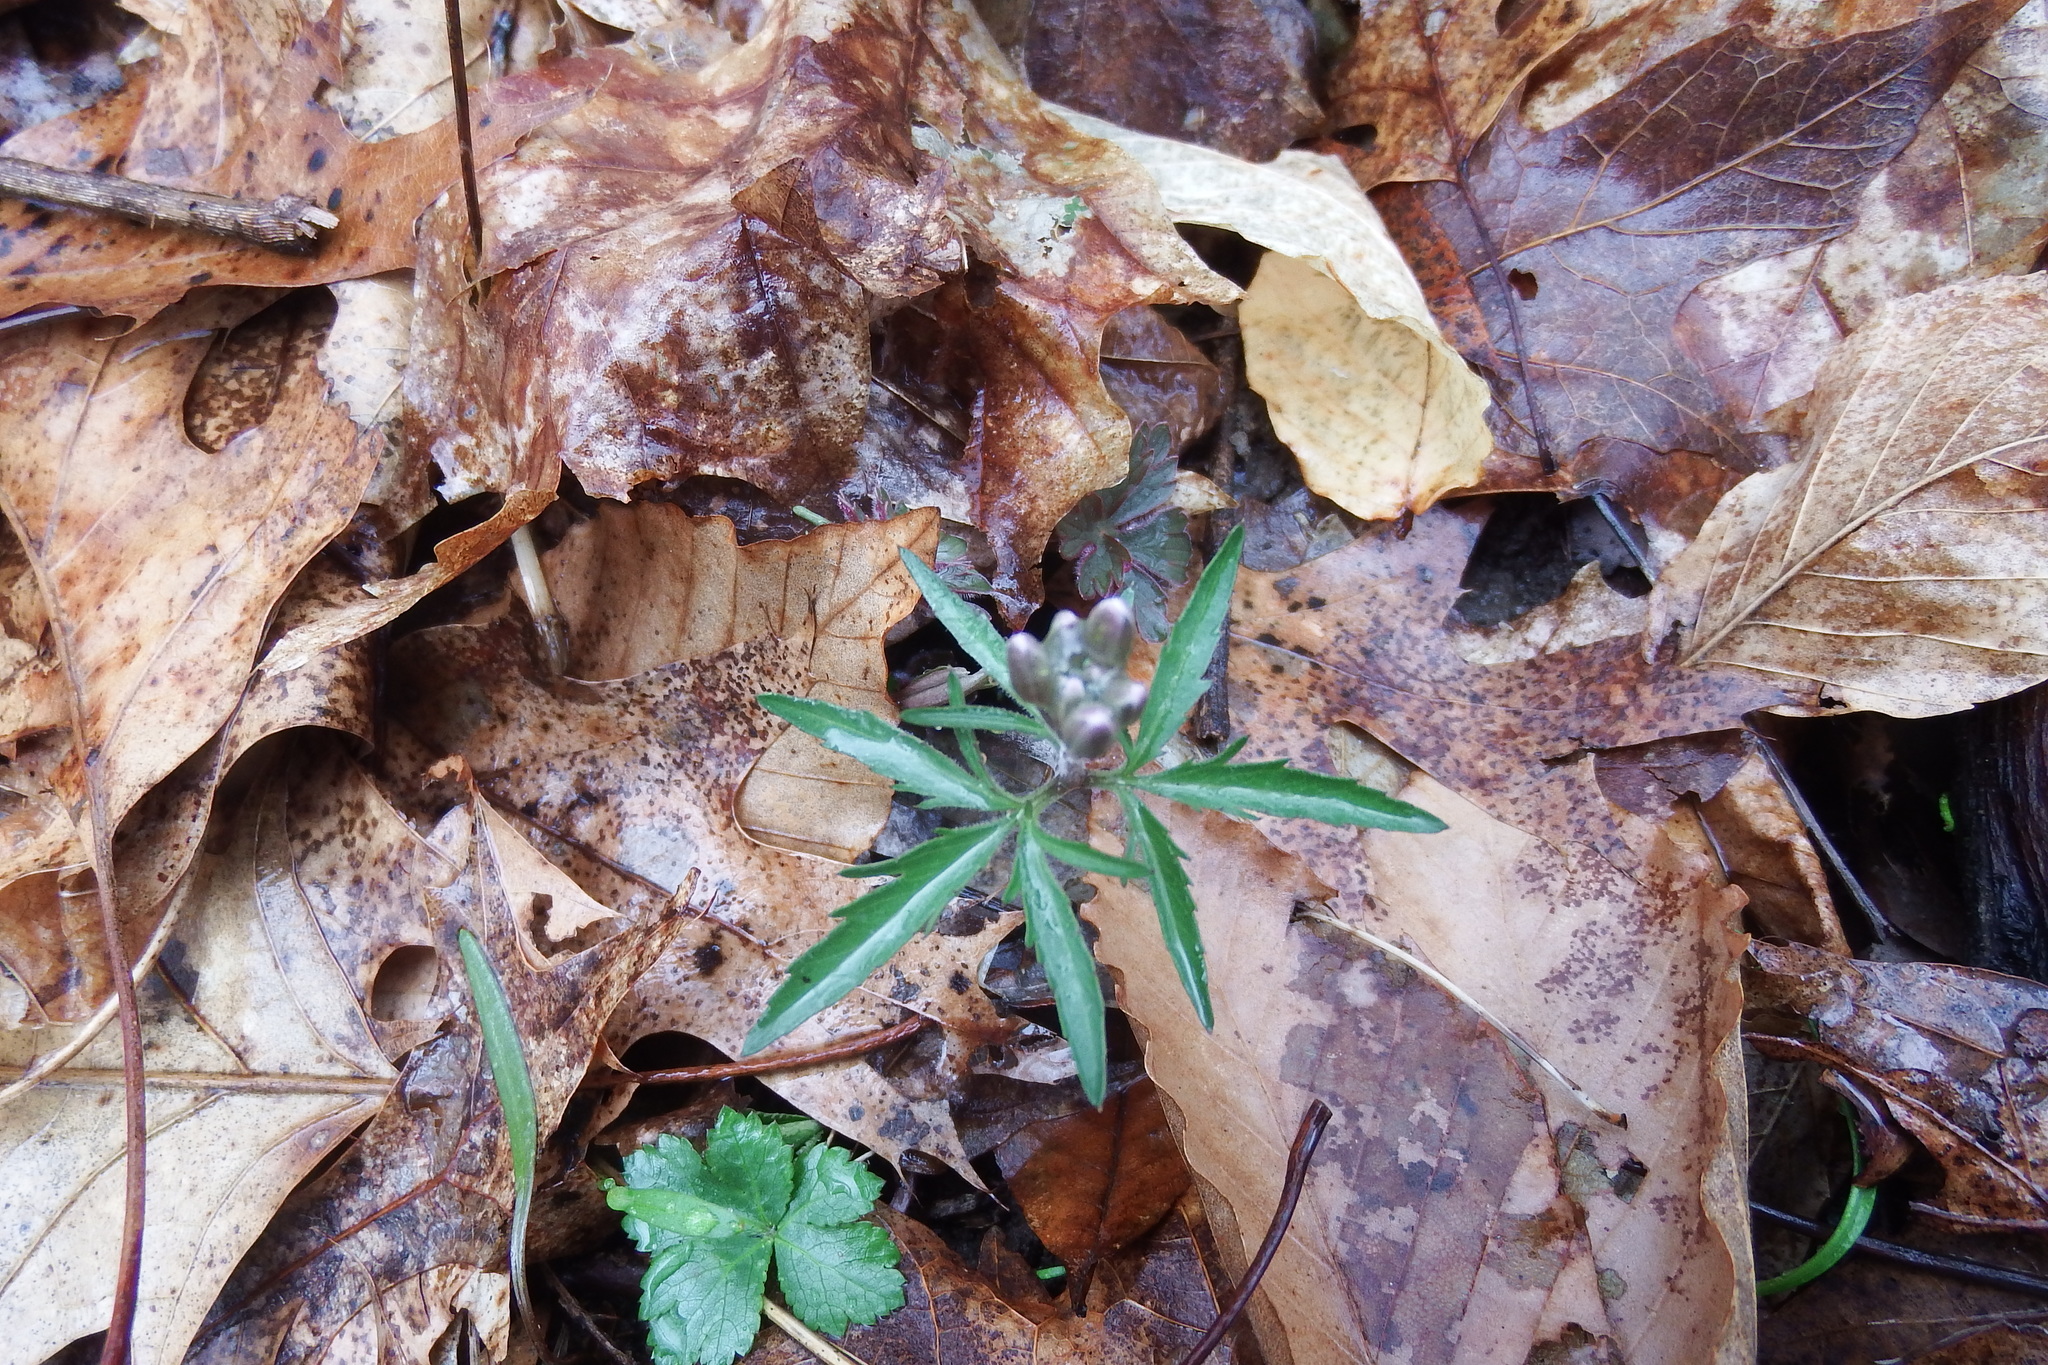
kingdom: Plantae
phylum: Tracheophyta
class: Magnoliopsida
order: Brassicales
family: Brassicaceae
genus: Cardamine
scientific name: Cardamine concatenata
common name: Cut-leaf toothcup
